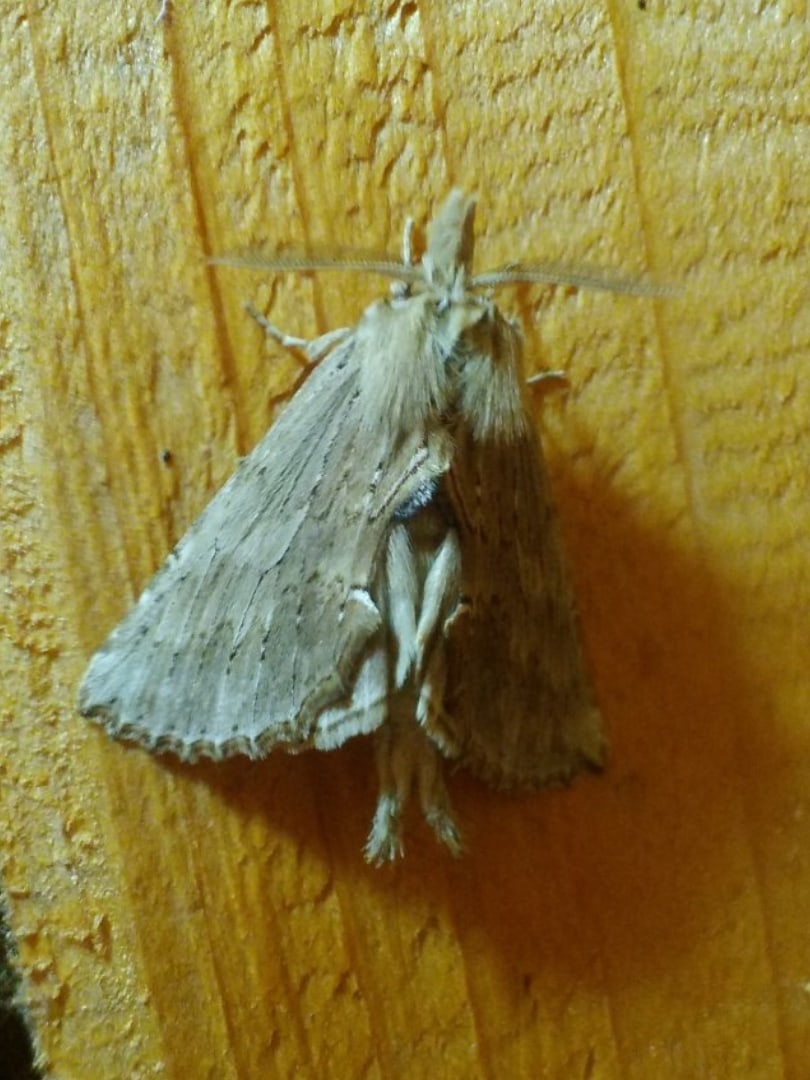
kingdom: Animalia
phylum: Arthropoda
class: Insecta
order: Lepidoptera
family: Notodontidae
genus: Pterostoma
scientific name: Pterostoma palpina
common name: Pale prominent
